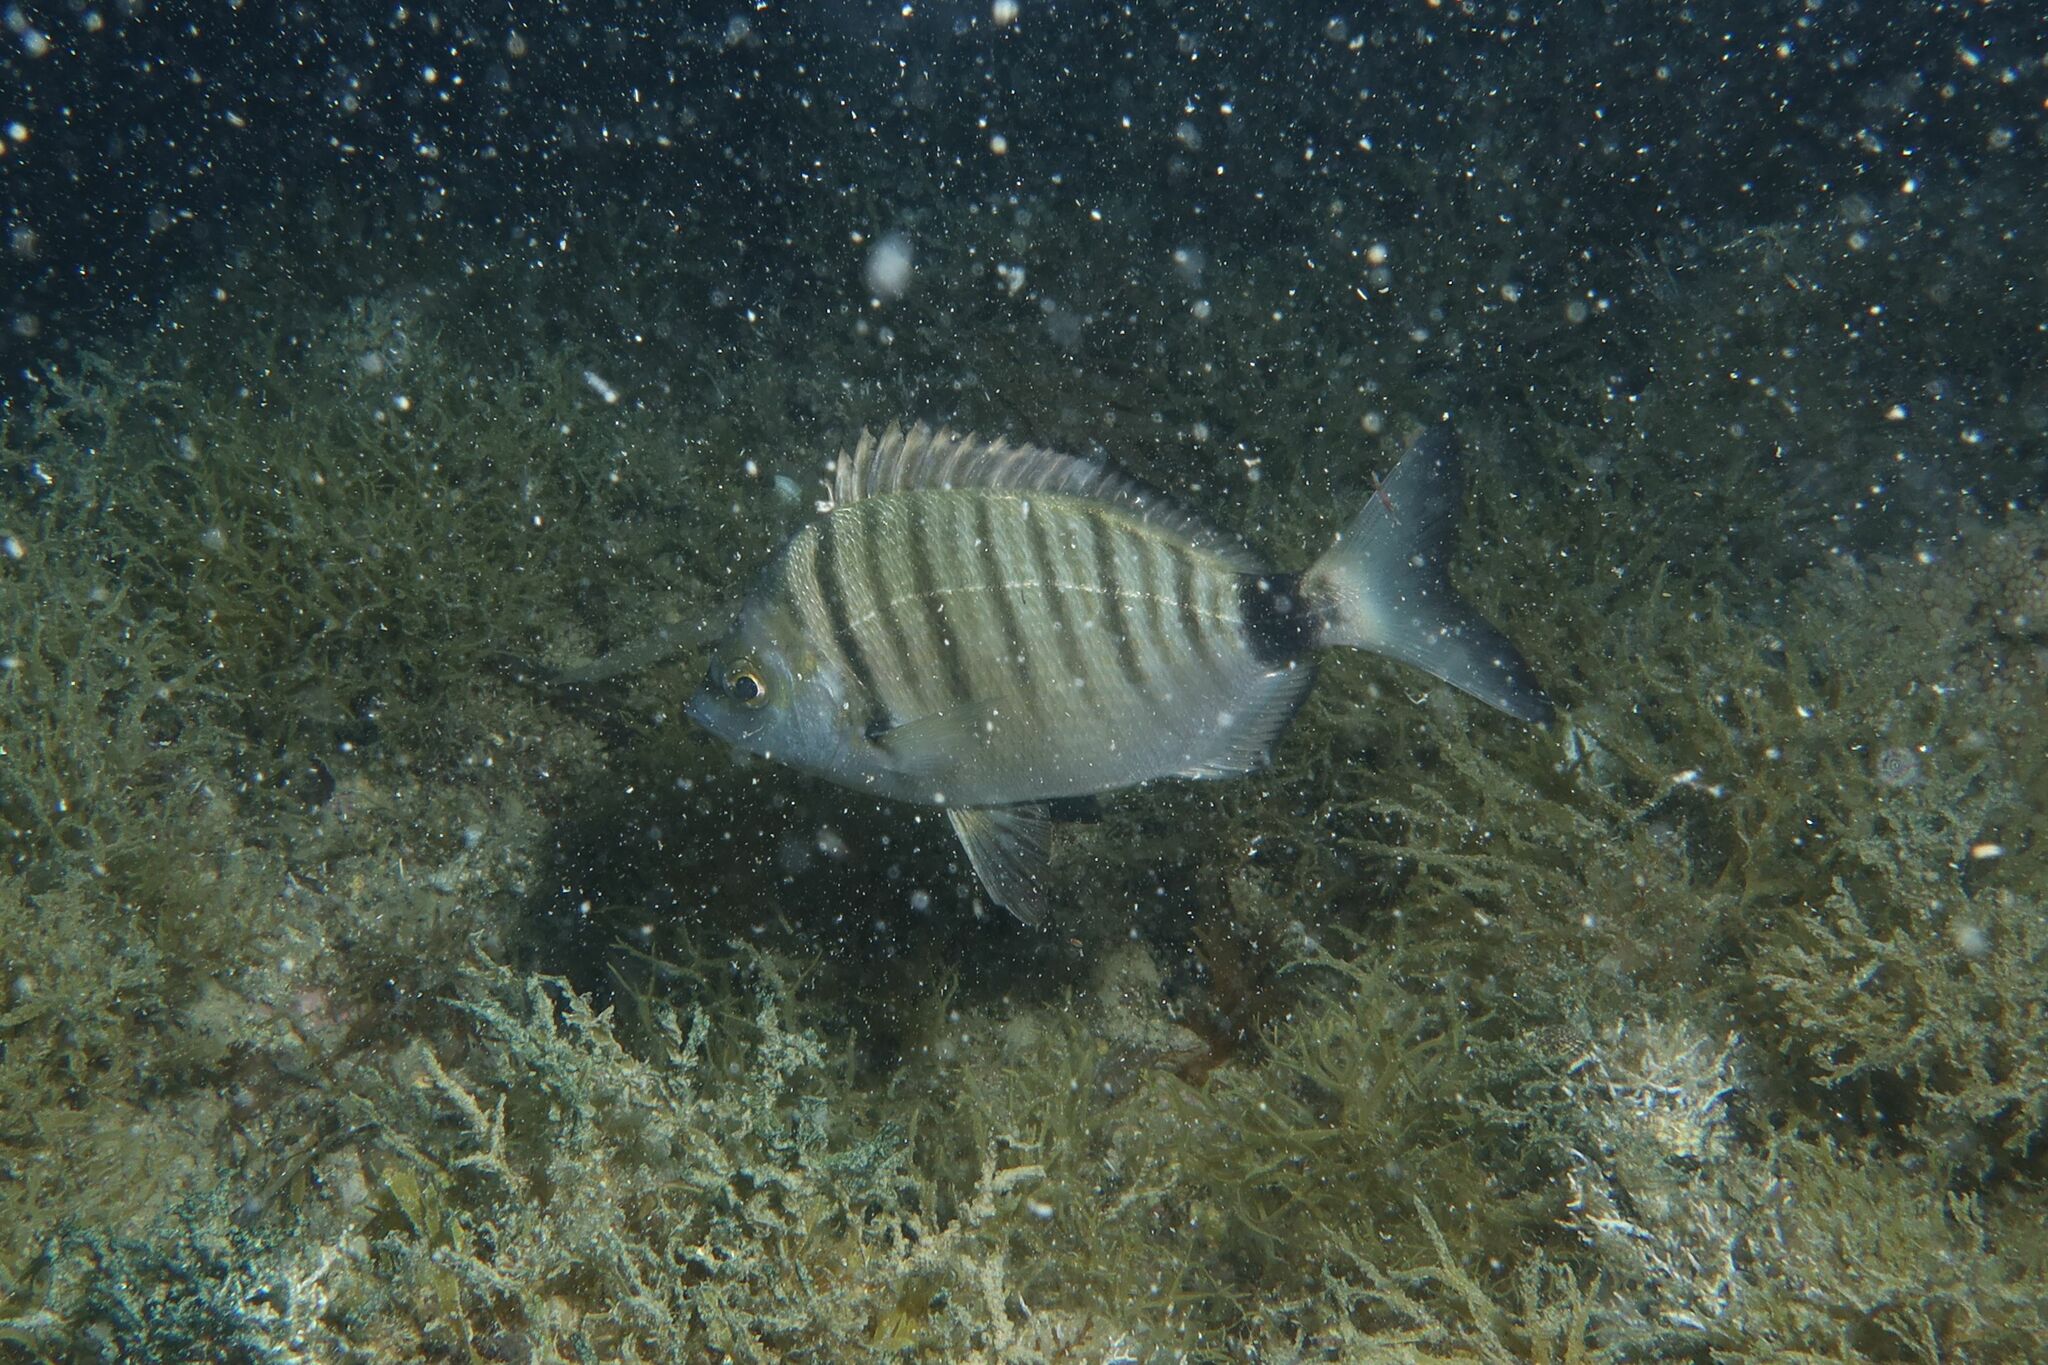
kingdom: Animalia
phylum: Chordata
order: Perciformes
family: Sparidae
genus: Diplodus
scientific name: Diplodus puntazzo
